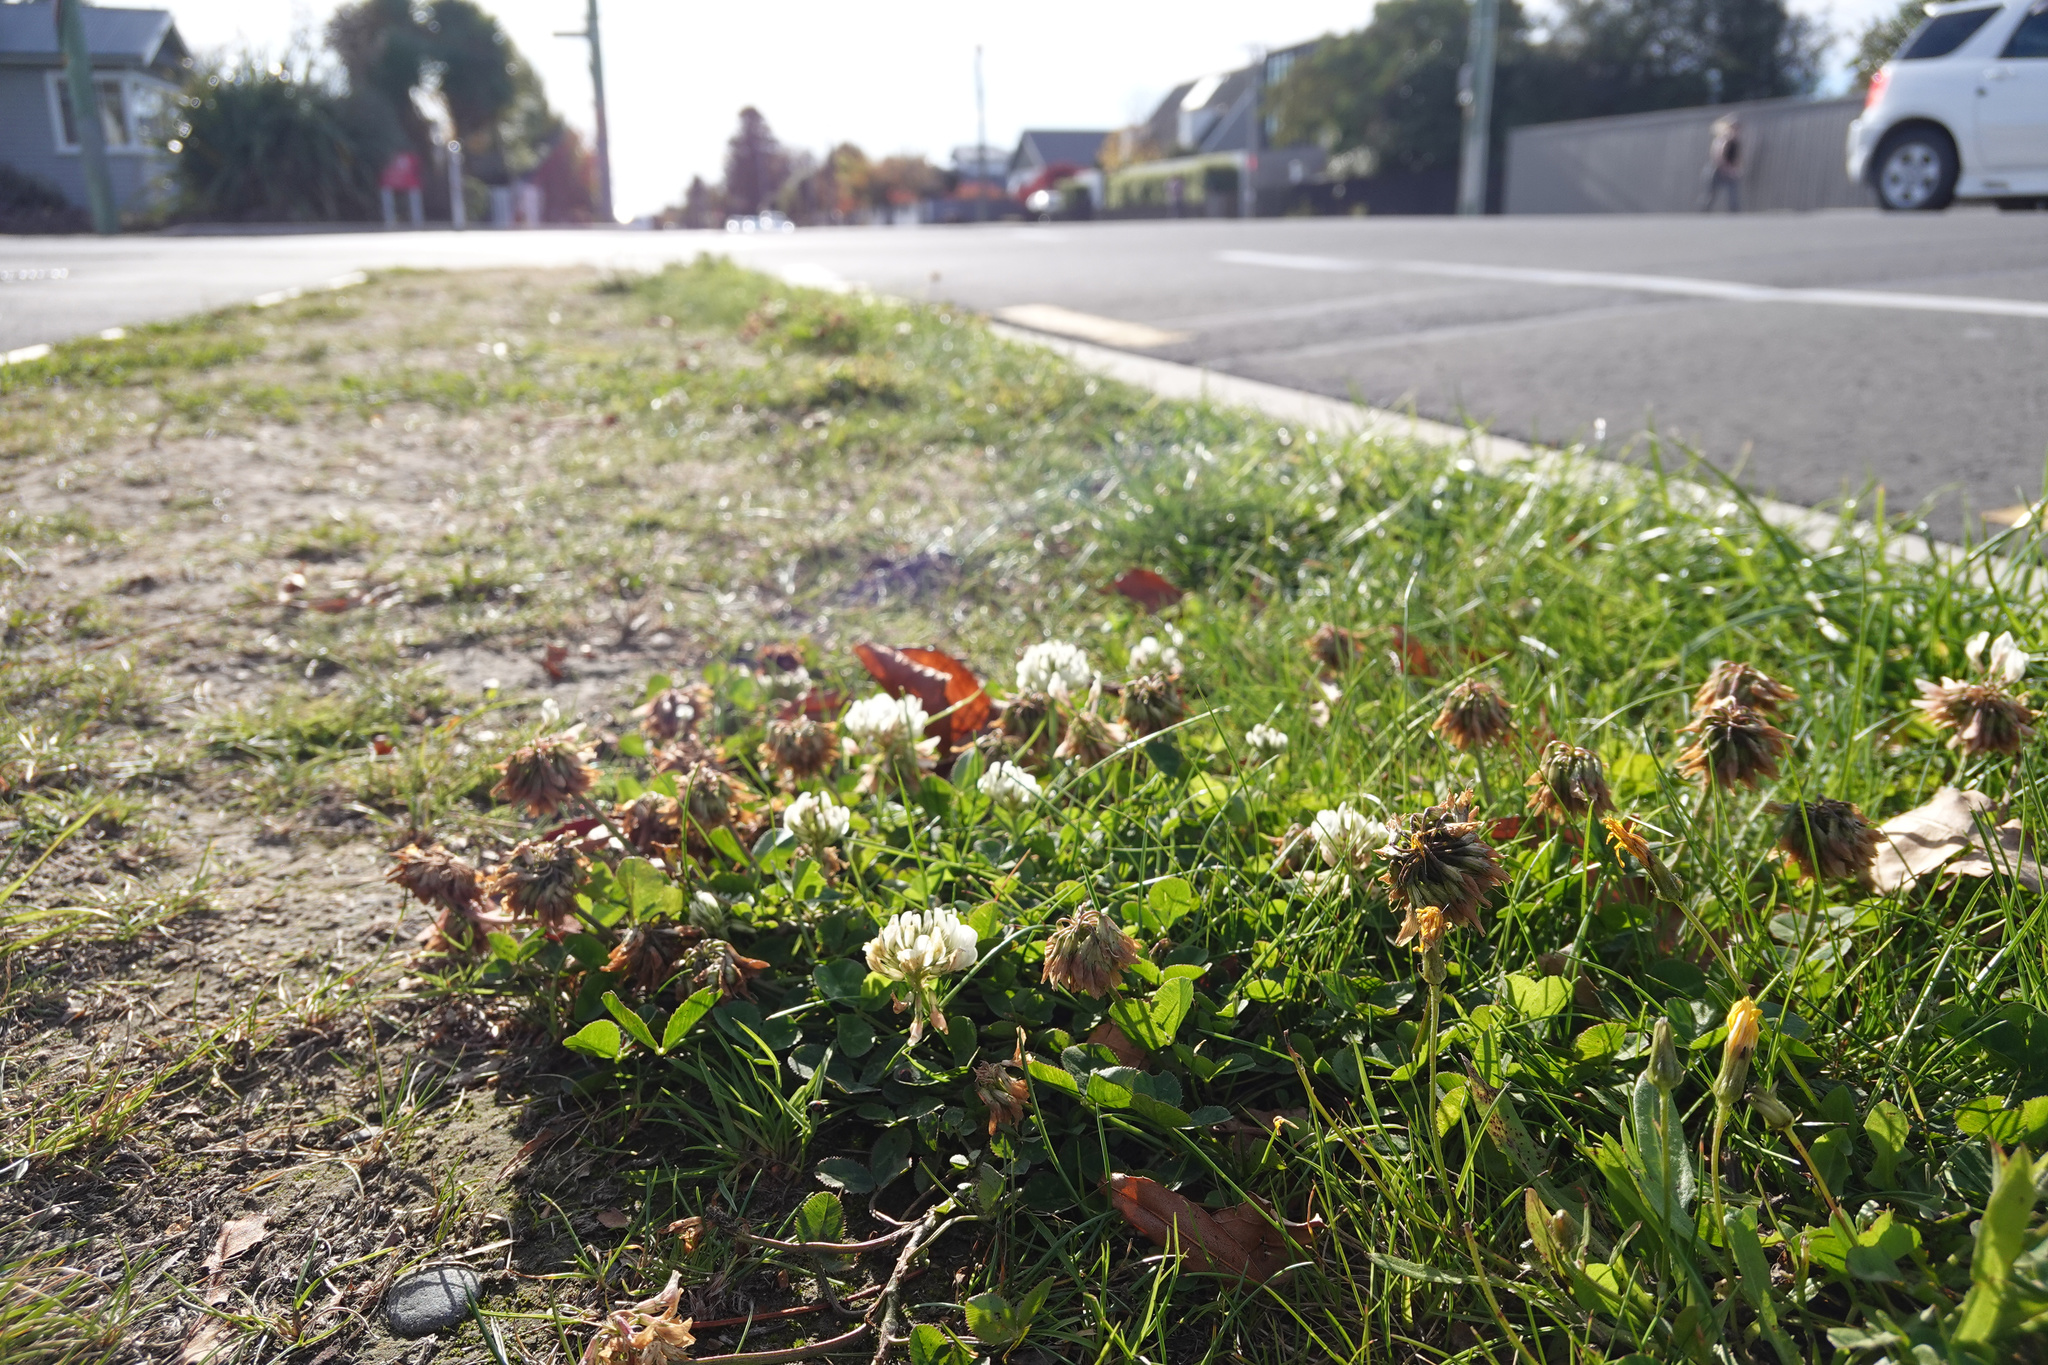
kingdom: Plantae
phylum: Tracheophyta
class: Magnoliopsida
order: Fabales
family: Fabaceae
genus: Trifolium
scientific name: Trifolium repens
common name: White clover
